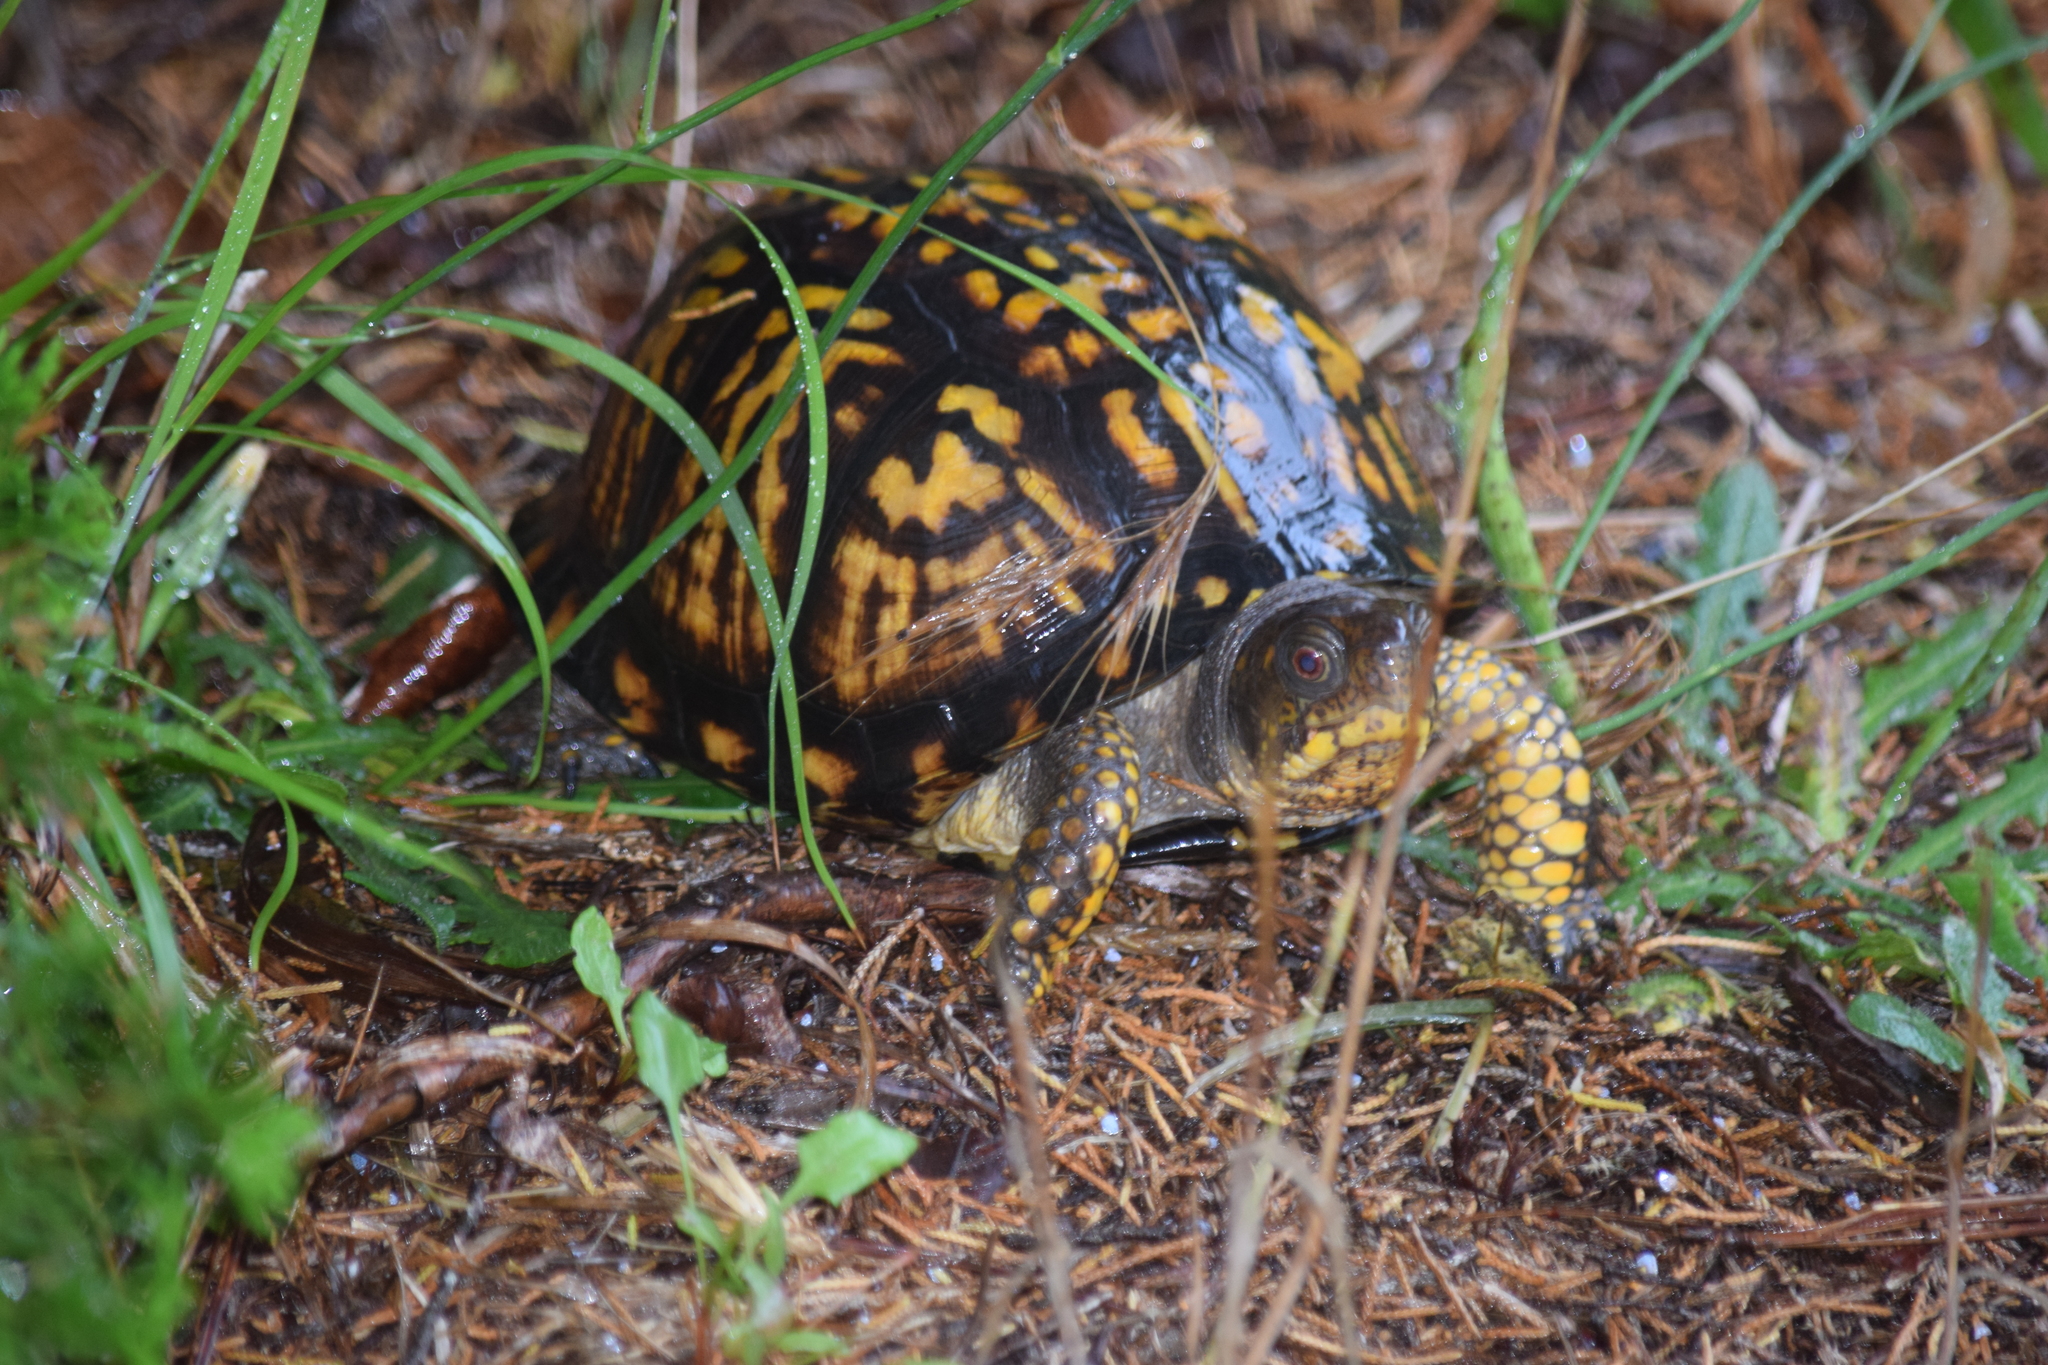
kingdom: Animalia
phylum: Chordata
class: Testudines
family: Emydidae
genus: Terrapene
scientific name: Terrapene carolina
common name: Common box turtle
